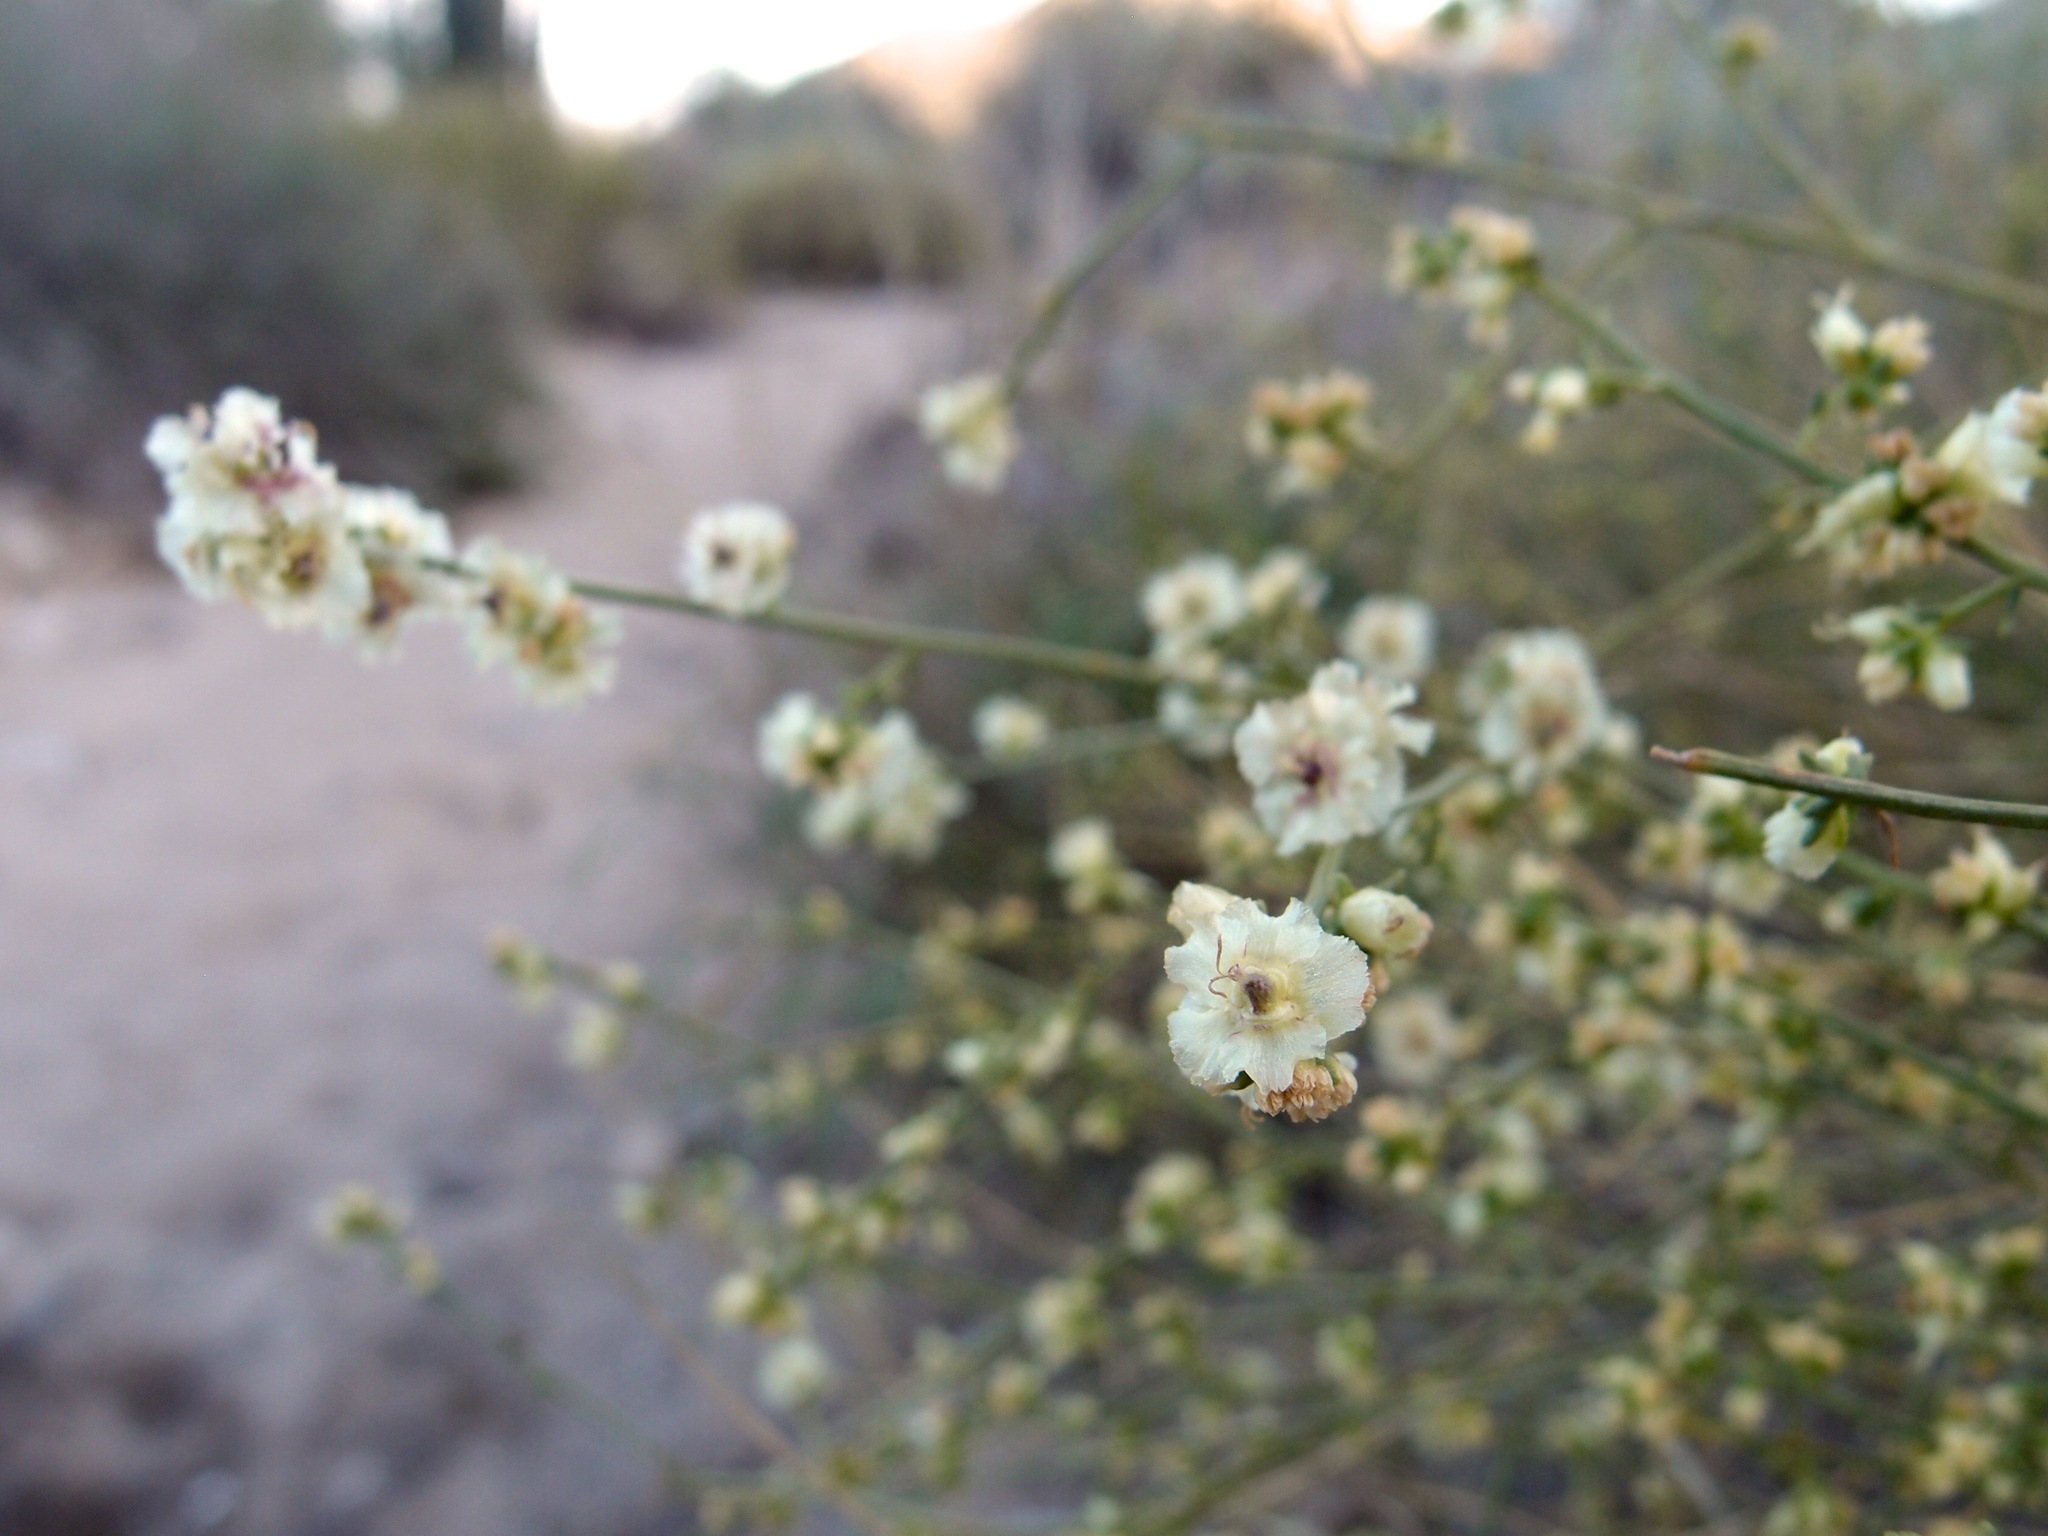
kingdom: Plantae
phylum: Tracheophyta
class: Magnoliopsida
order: Asterales
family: Asteraceae
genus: Ambrosia
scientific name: Ambrosia salsola
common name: Burrobrush
